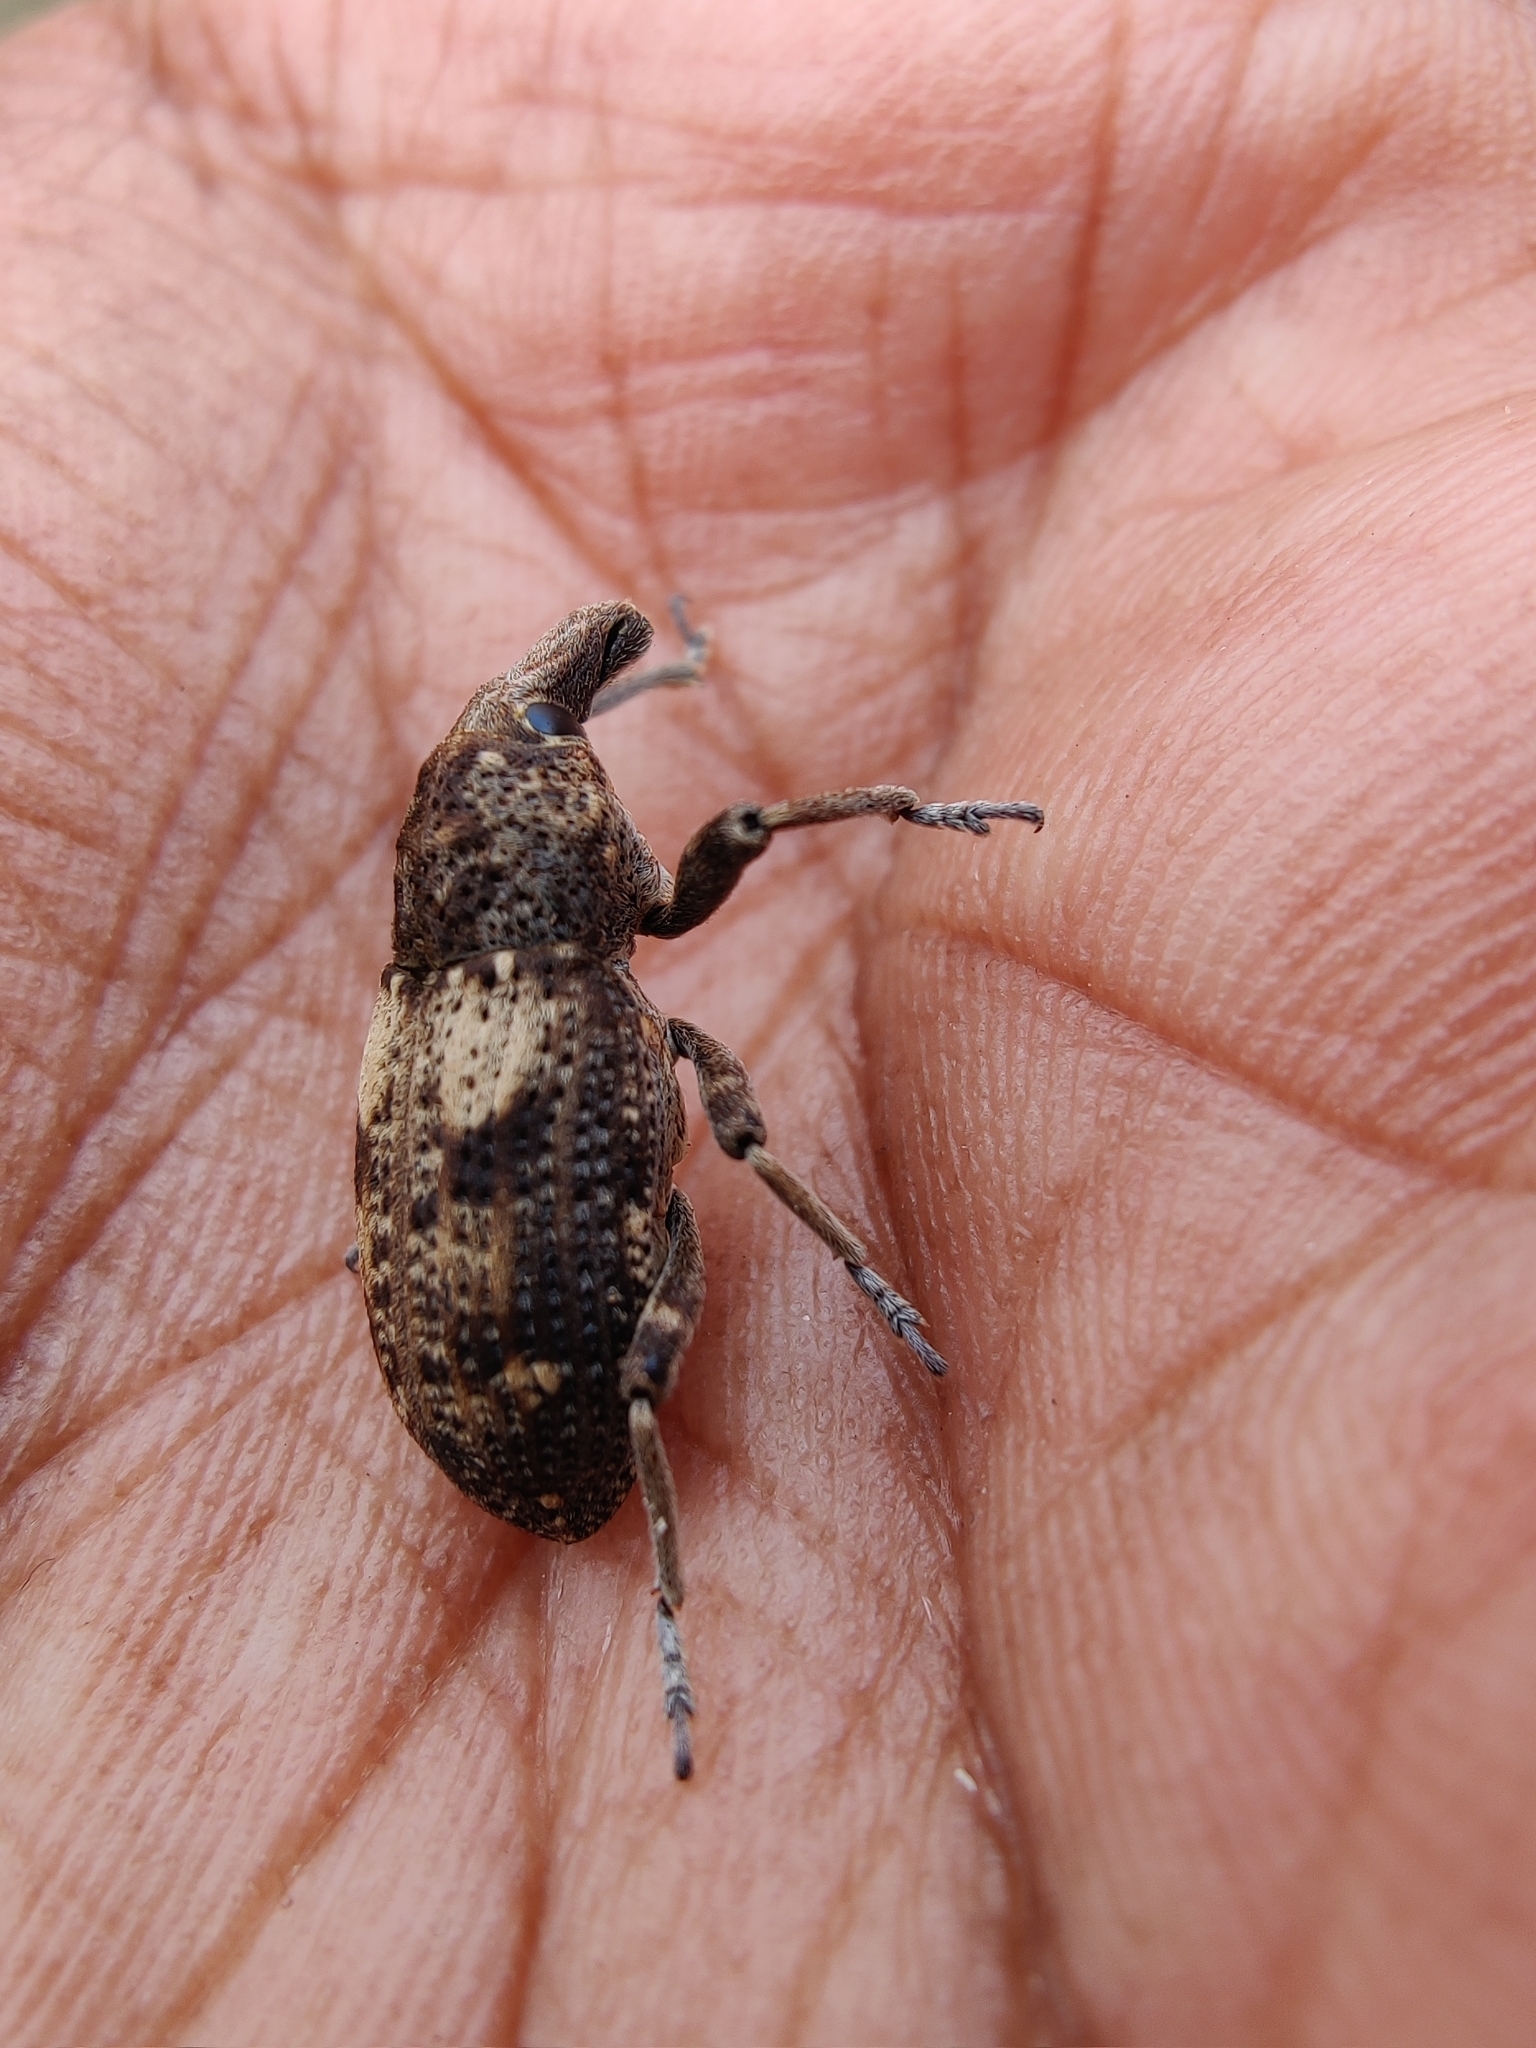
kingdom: Animalia
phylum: Arthropoda
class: Insecta
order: Coleoptera
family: Curculionidae
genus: Pycnodactylopsis
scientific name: Pycnodactylopsis hypocrita
